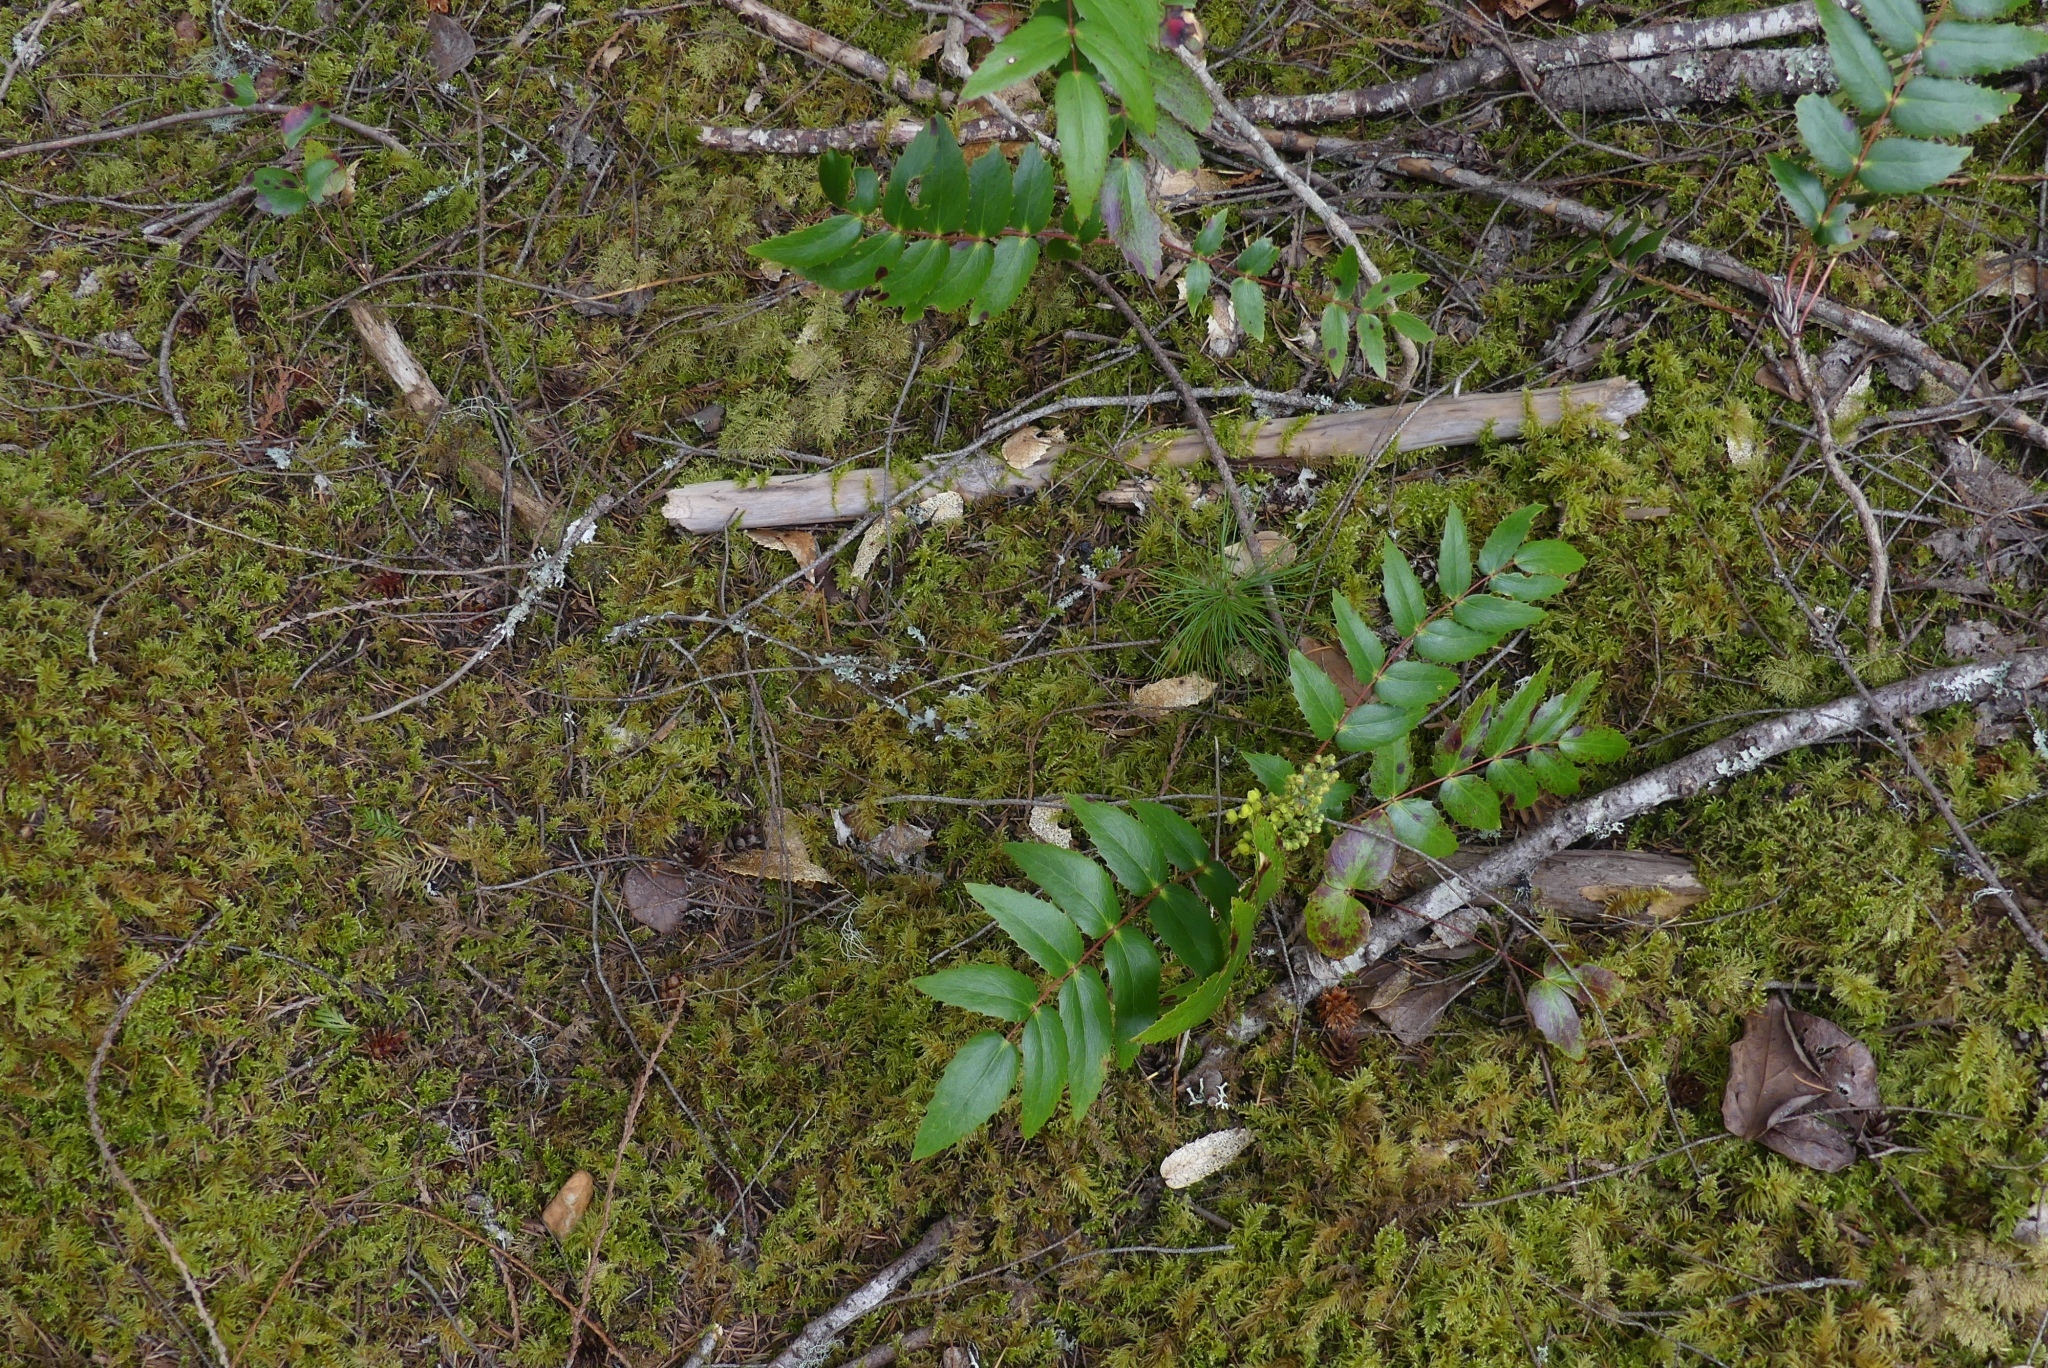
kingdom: Plantae
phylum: Tracheophyta
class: Magnoliopsida
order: Ranunculales
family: Berberidaceae
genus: Mahonia
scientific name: Mahonia nervosa
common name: Cascade oregon-grape
